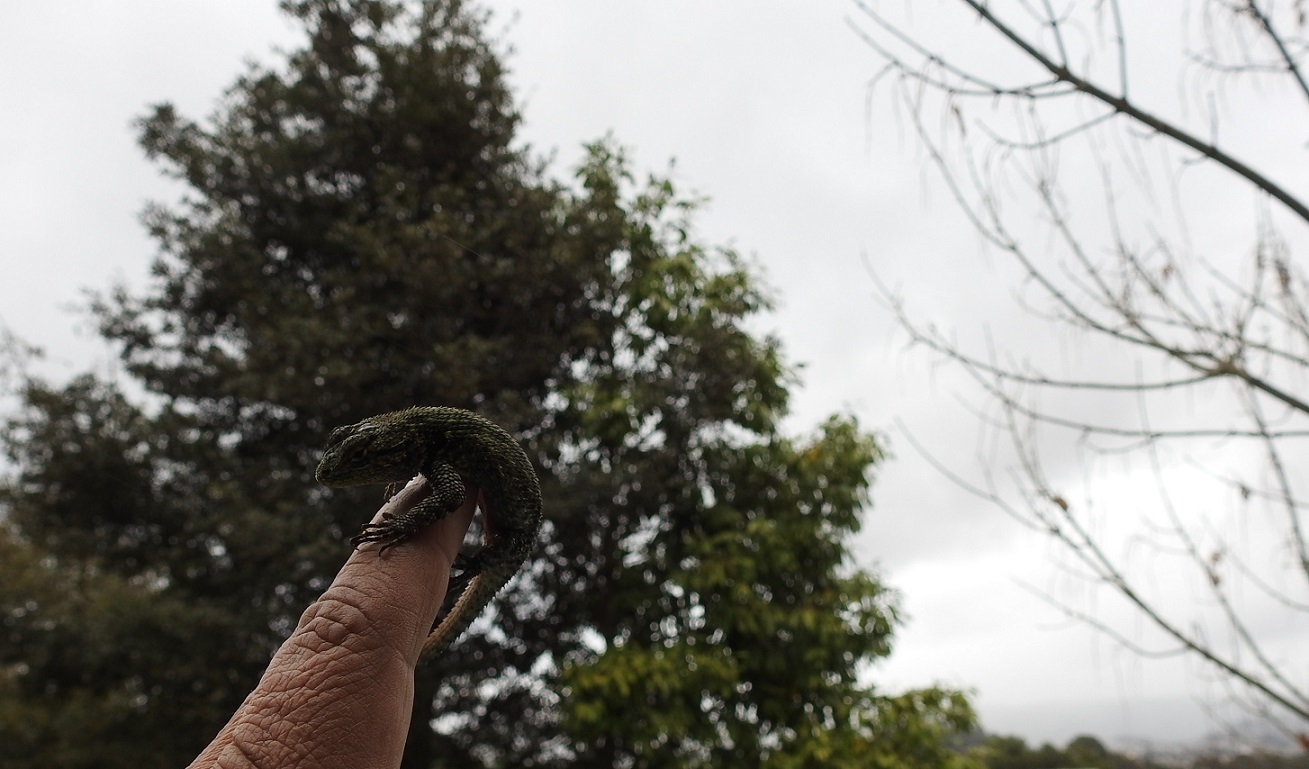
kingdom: Animalia
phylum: Chordata
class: Squamata
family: Phrynosomatidae
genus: Sceloporus
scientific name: Sceloporus taeniocnemis
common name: Guatemalan emerald spiny lizard
